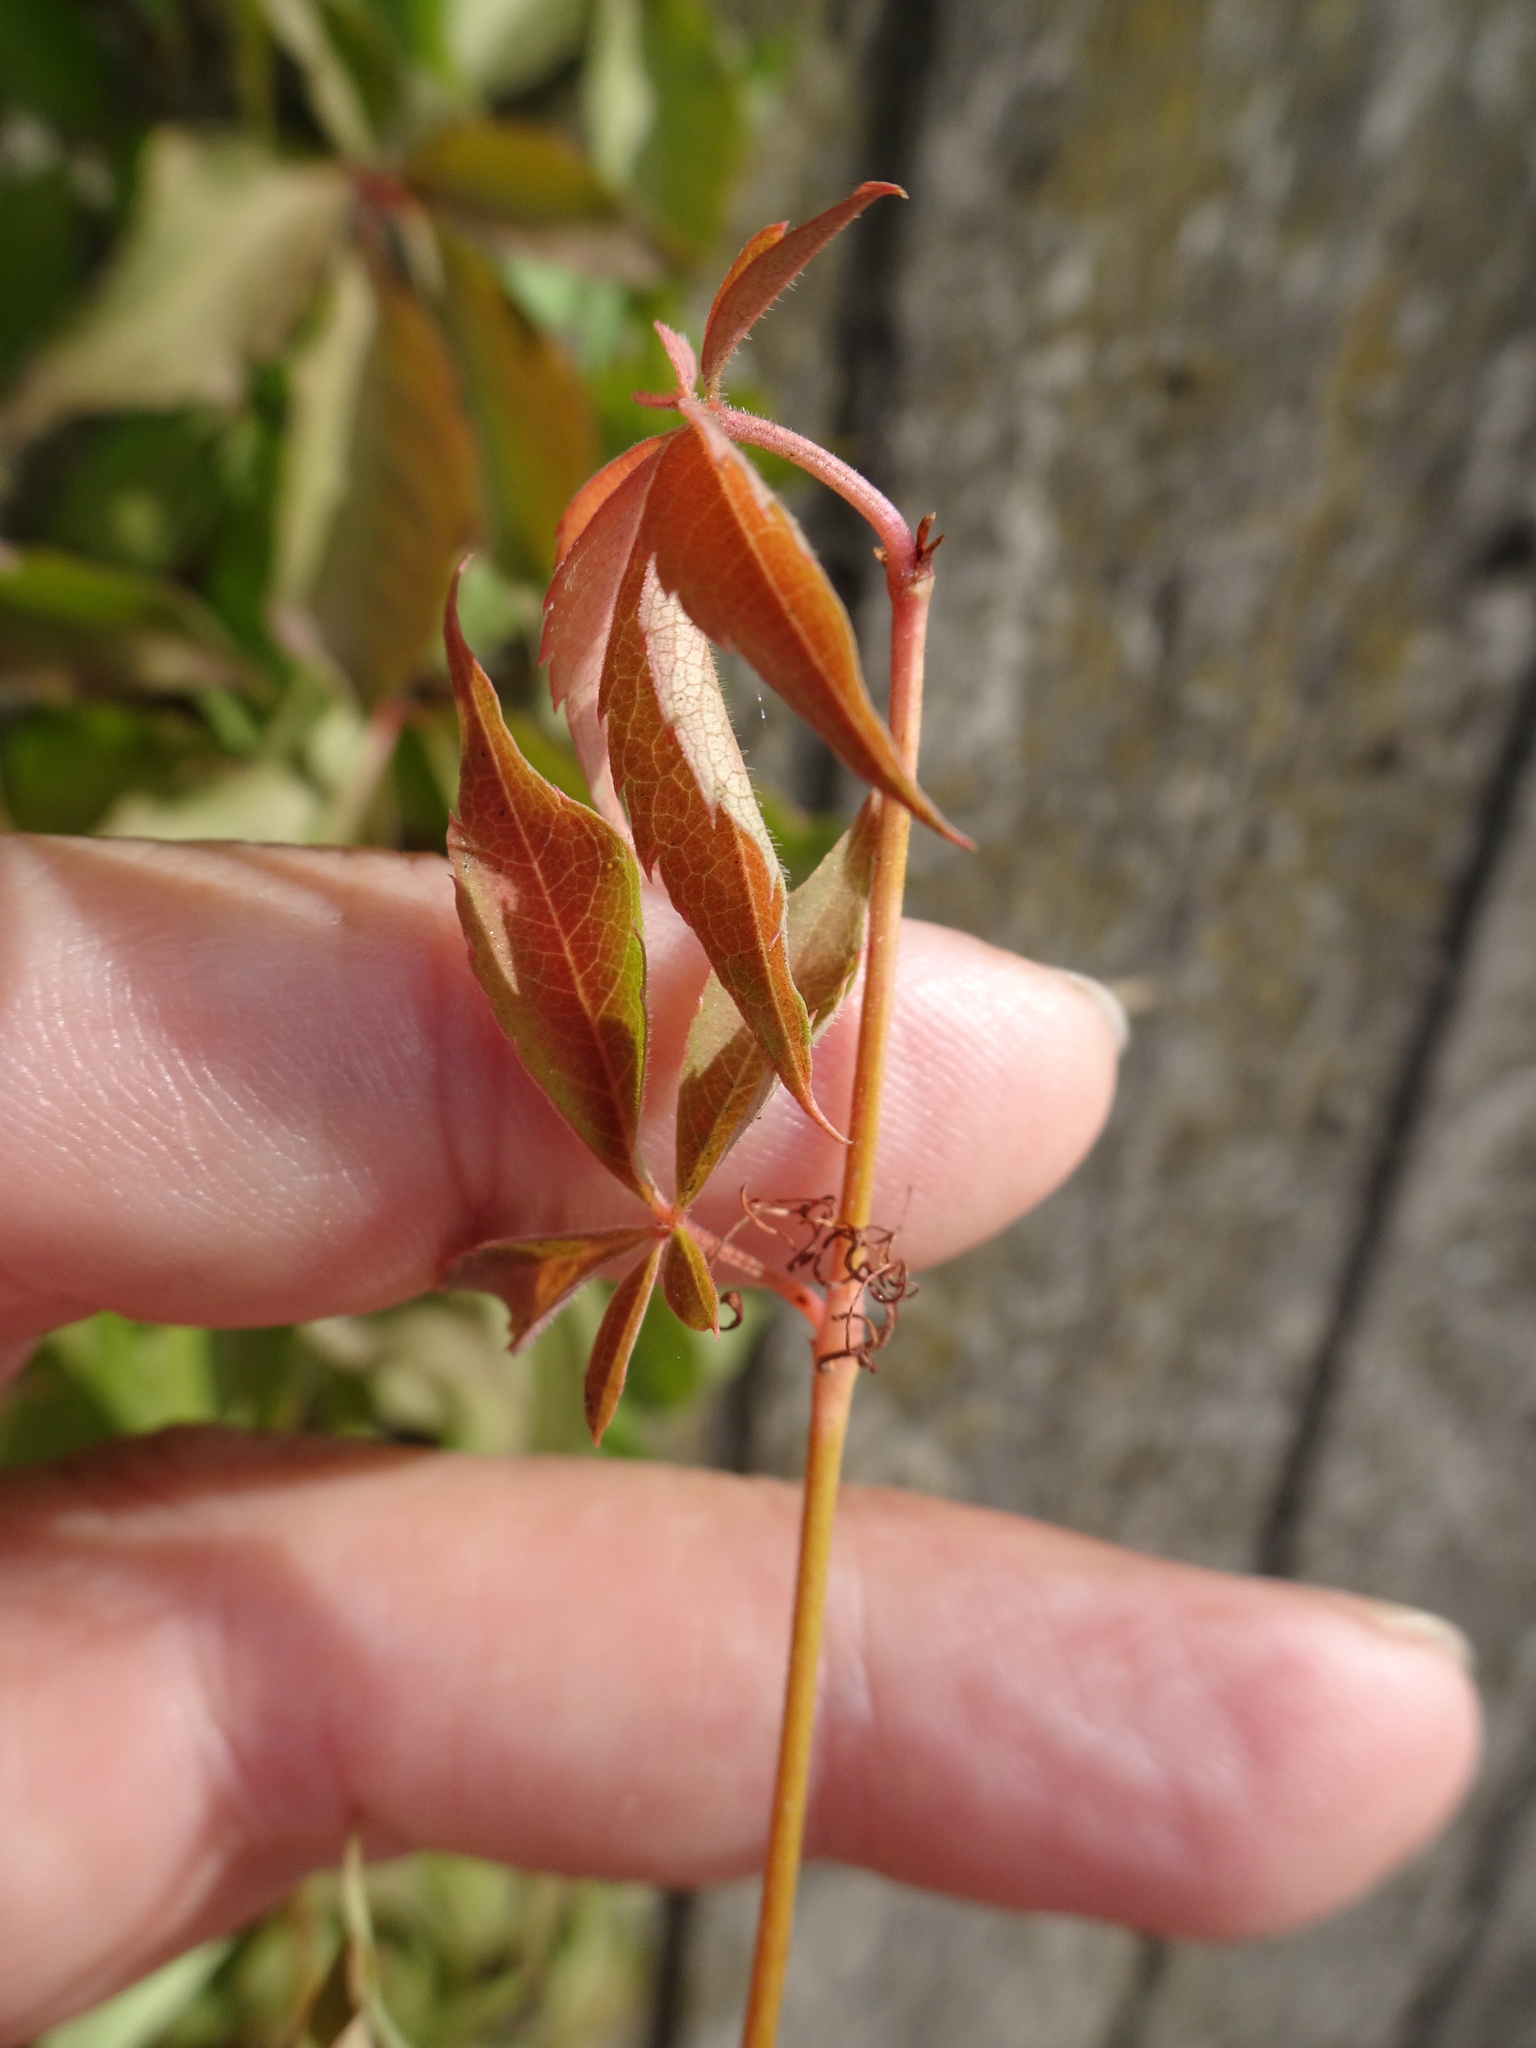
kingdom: Plantae
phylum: Tracheophyta
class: Magnoliopsida
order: Vitales
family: Vitaceae
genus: Parthenocissus
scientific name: Parthenocissus quinquefolia
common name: Virginia-creeper
